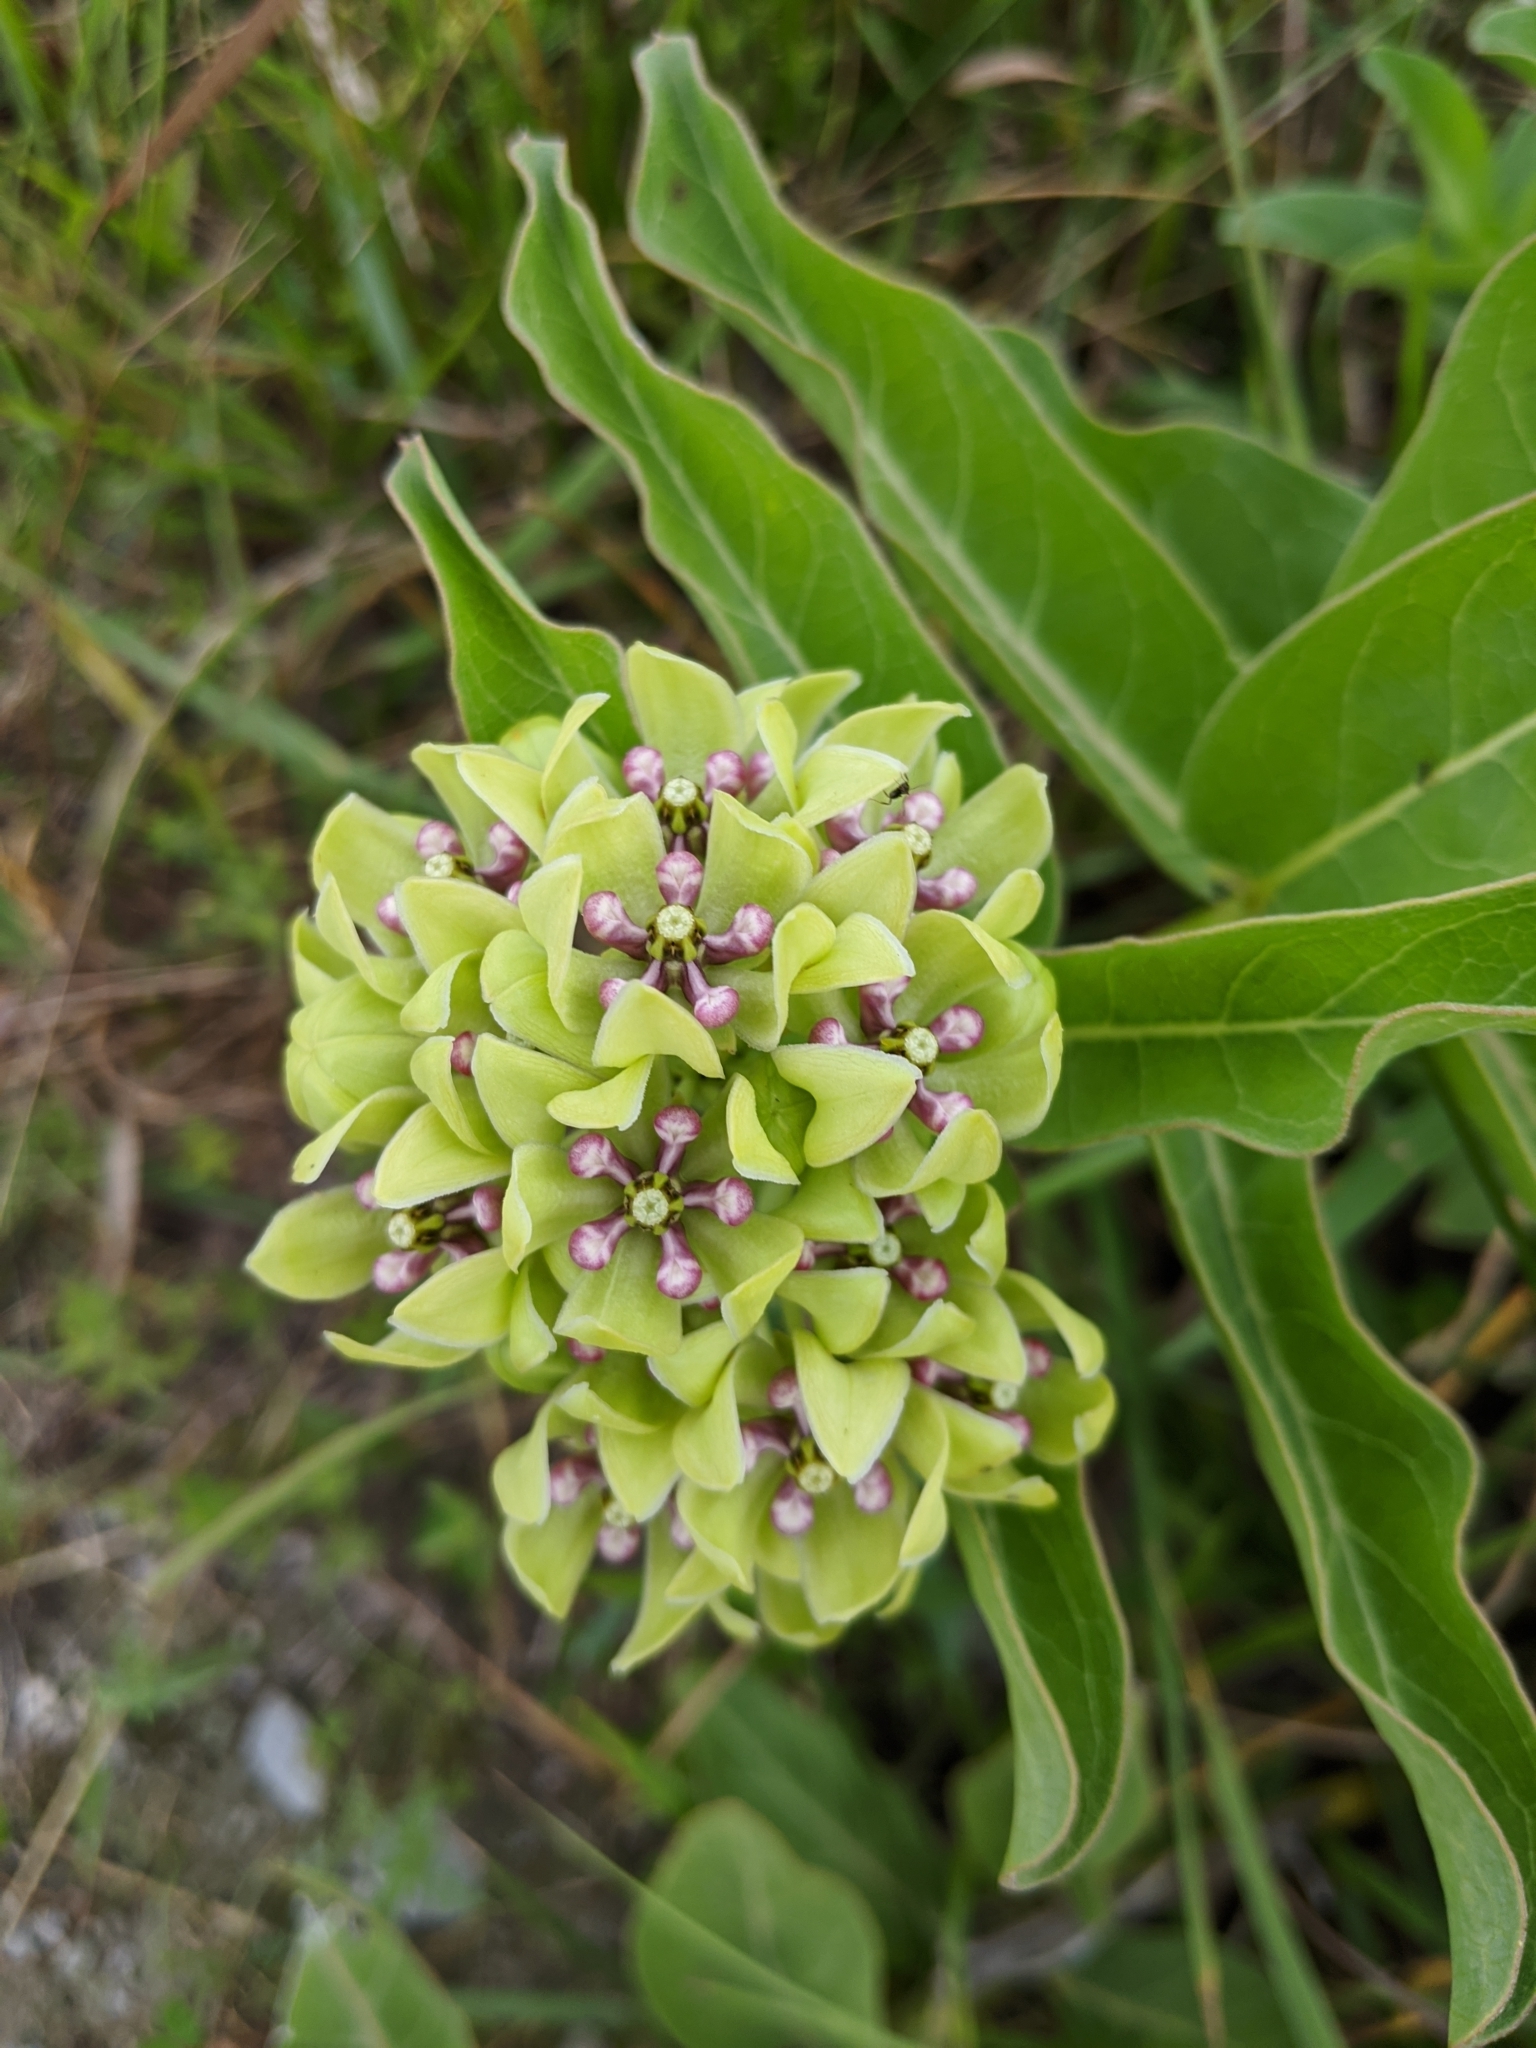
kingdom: Plantae
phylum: Tracheophyta
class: Magnoliopsida
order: Gentianales
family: Apocynaceae
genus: Asclepias
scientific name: Asclepias viridis
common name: Antelope-horns
